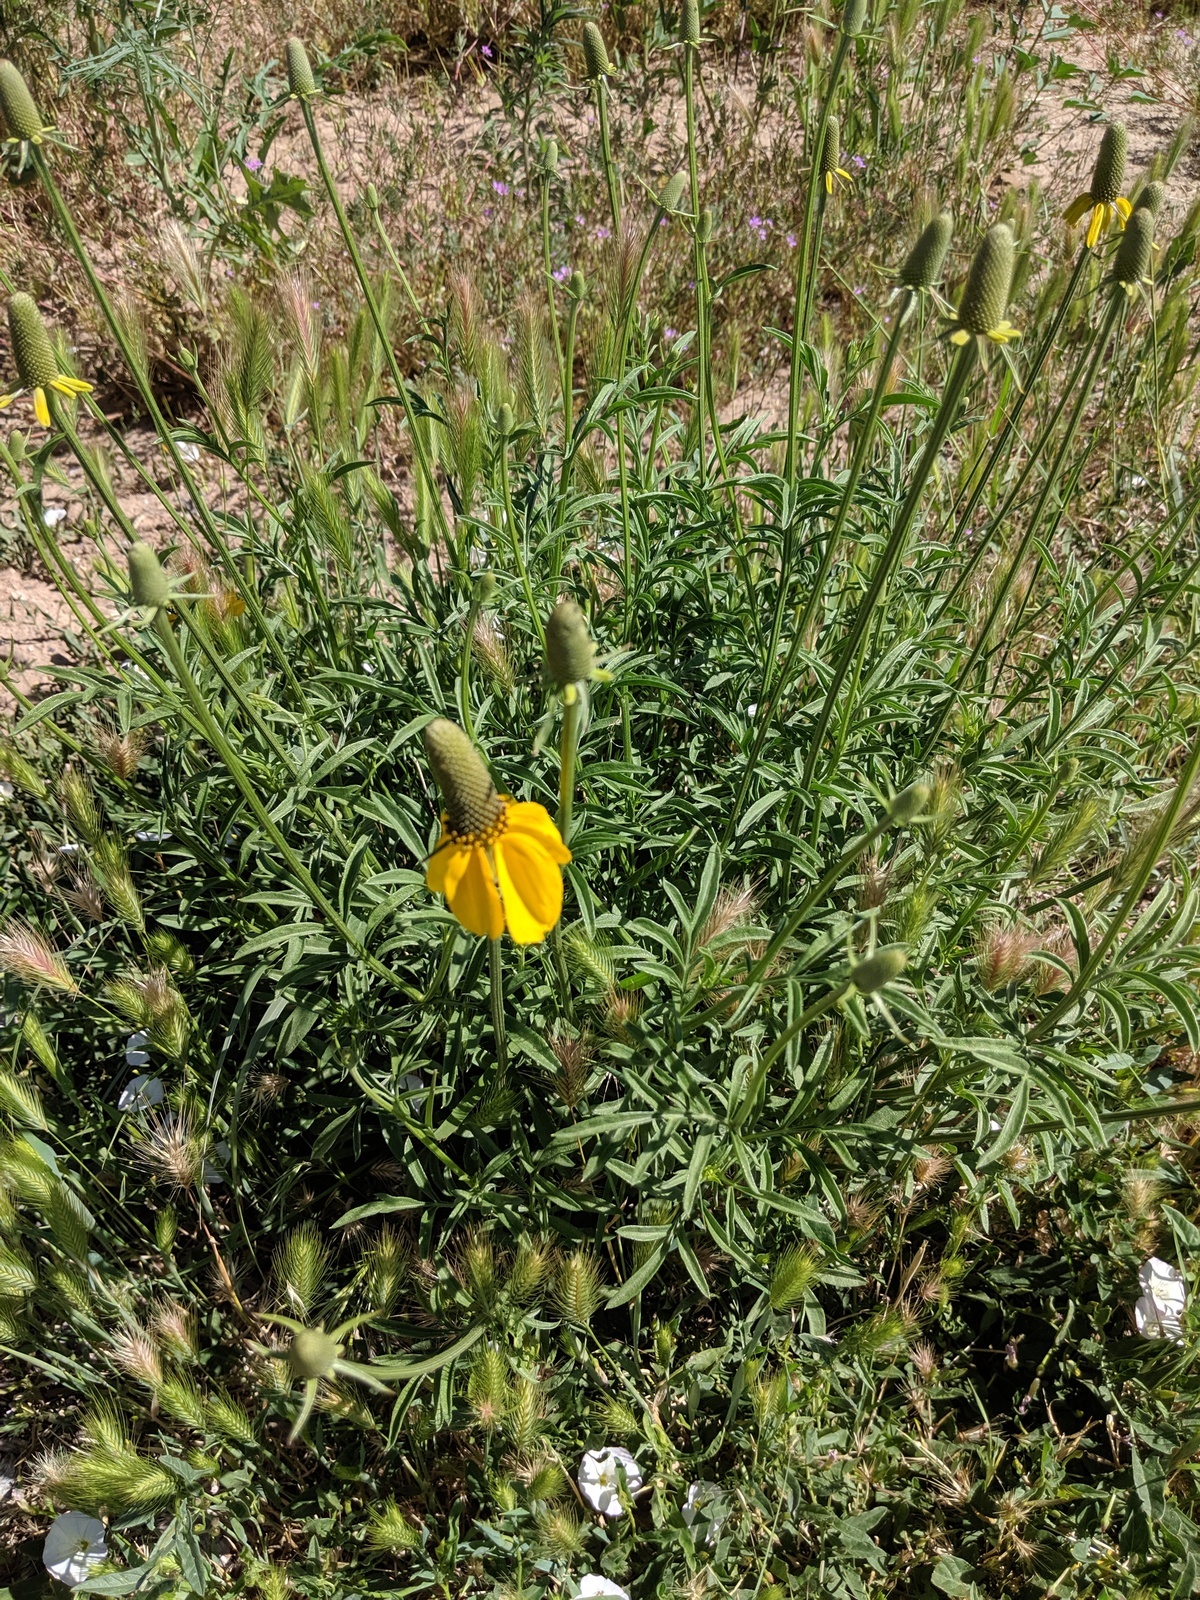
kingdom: Plantae
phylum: Tracheophyta
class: Magnoliopsida
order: Asterales
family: Asteraceae
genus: Ratibida
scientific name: Ratibida columnifera
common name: Prairie coneflower
